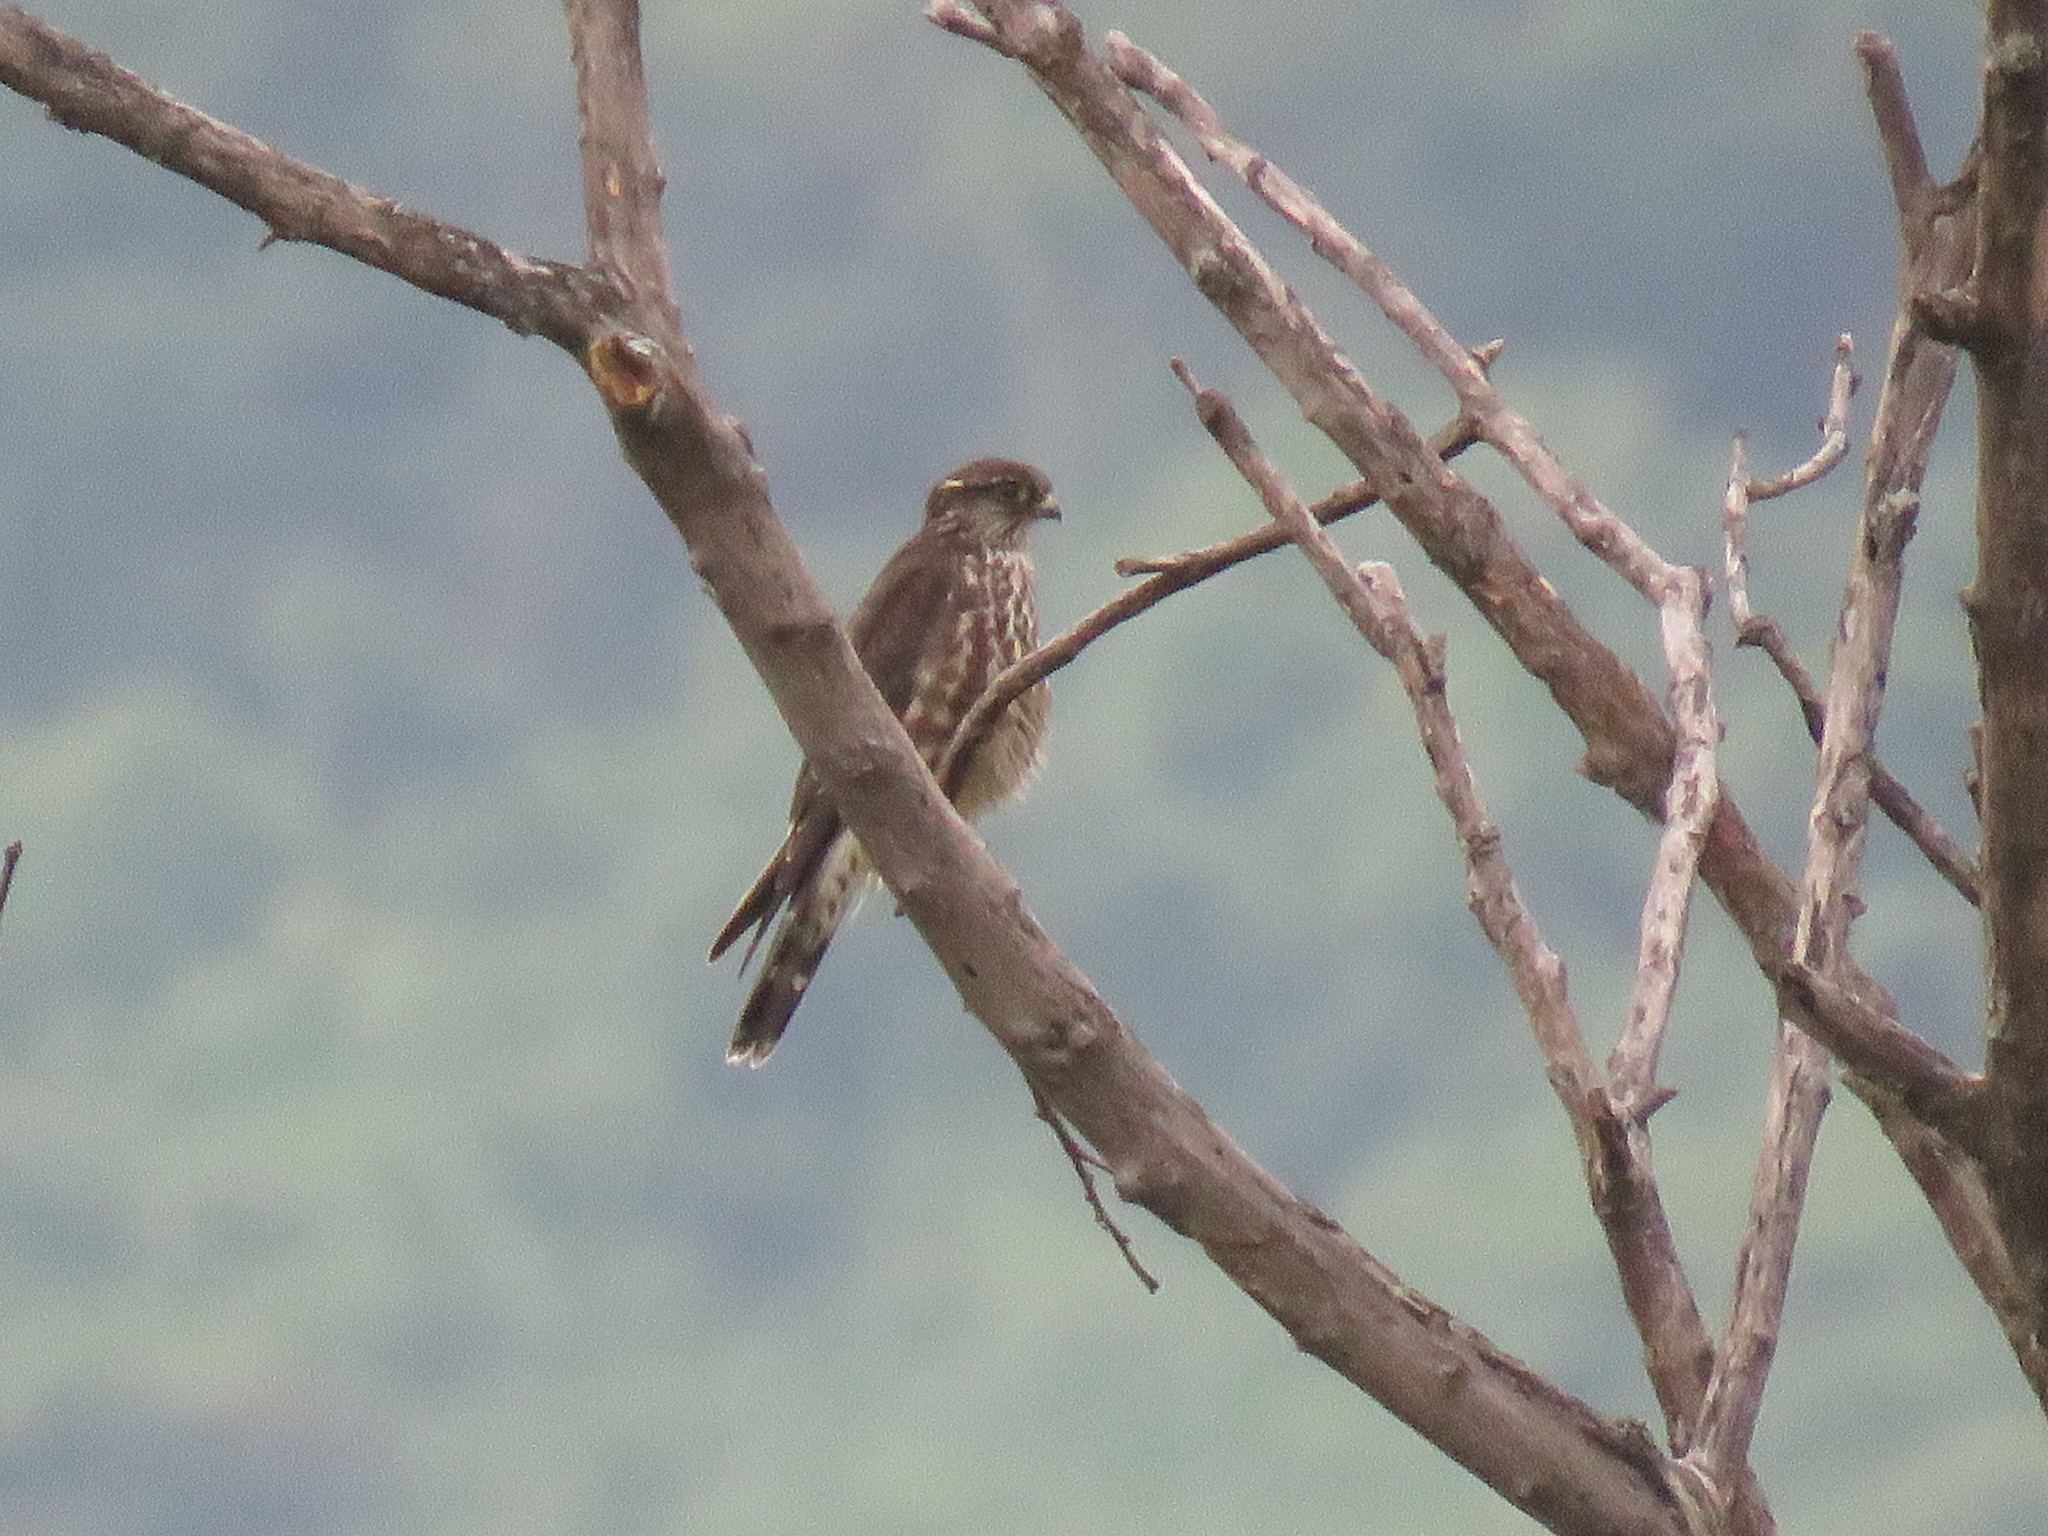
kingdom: Animalia
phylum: Chordata
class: Aves
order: Falconiformes
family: Falconidae
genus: Falco
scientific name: Falco columbarius
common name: Merlin
